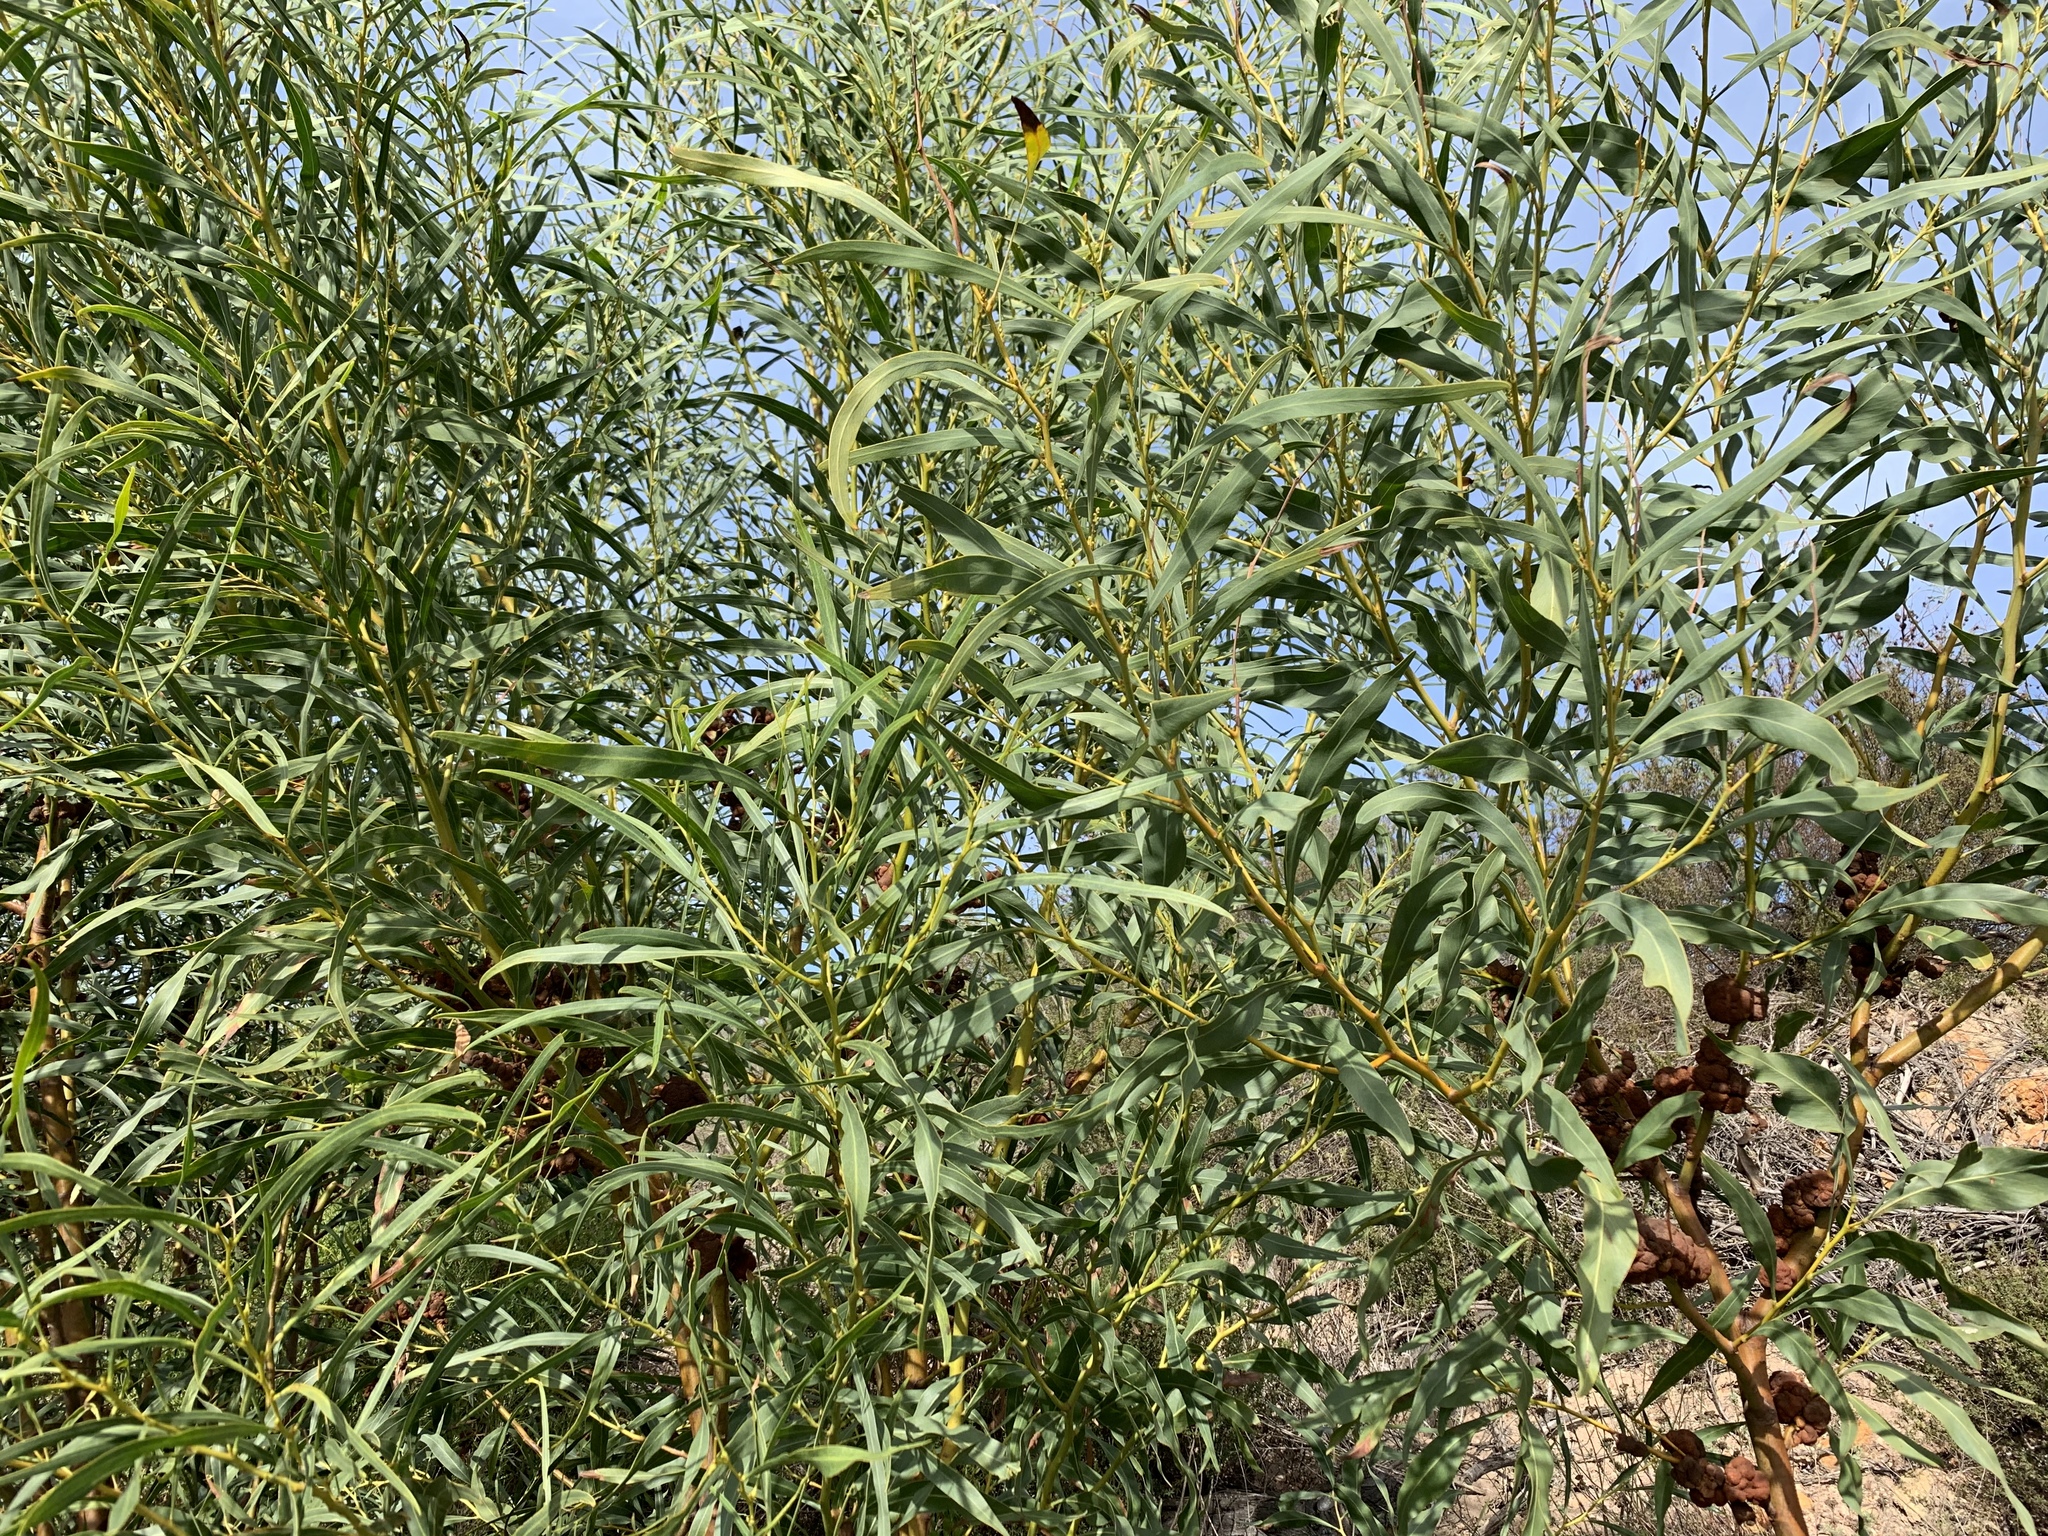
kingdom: Plantae
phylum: Tracheophyta
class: Magnoliopsida
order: Fabales
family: Fabaceae
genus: Acacia
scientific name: Acacia saligna
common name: Orange wattle
